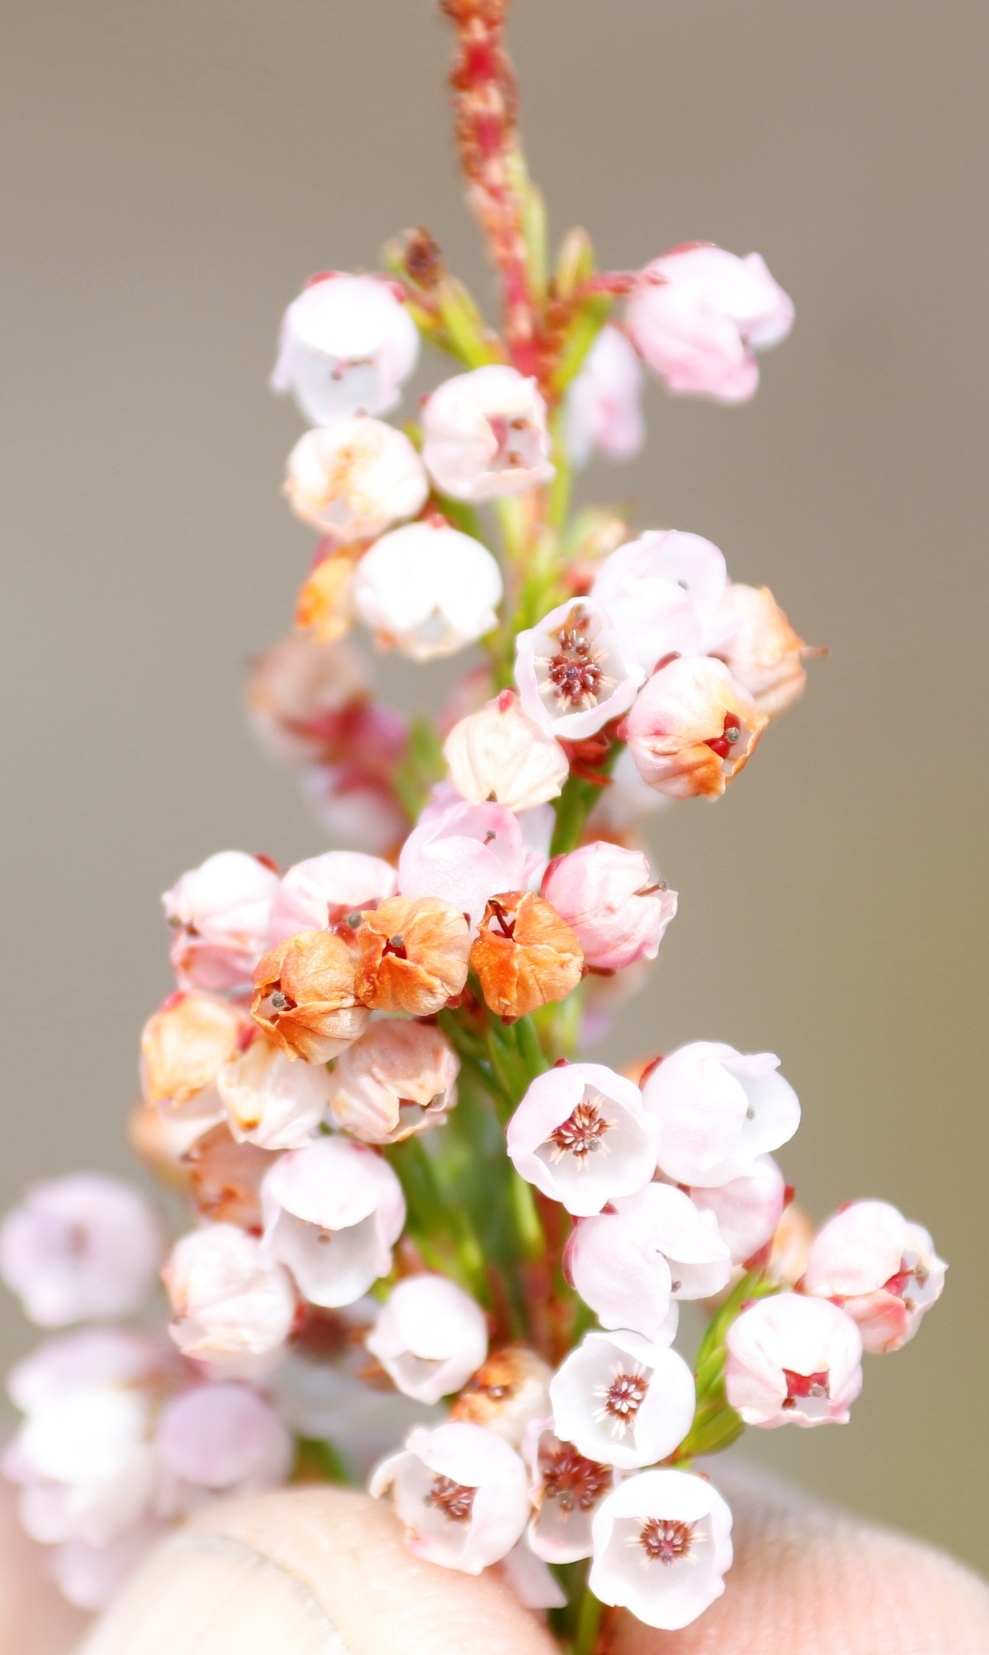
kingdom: Plantae
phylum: Tracheophyta
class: Magnoliopsida
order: Ericales
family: Ericaceae
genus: Erica
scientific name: Erica subdivaricata
